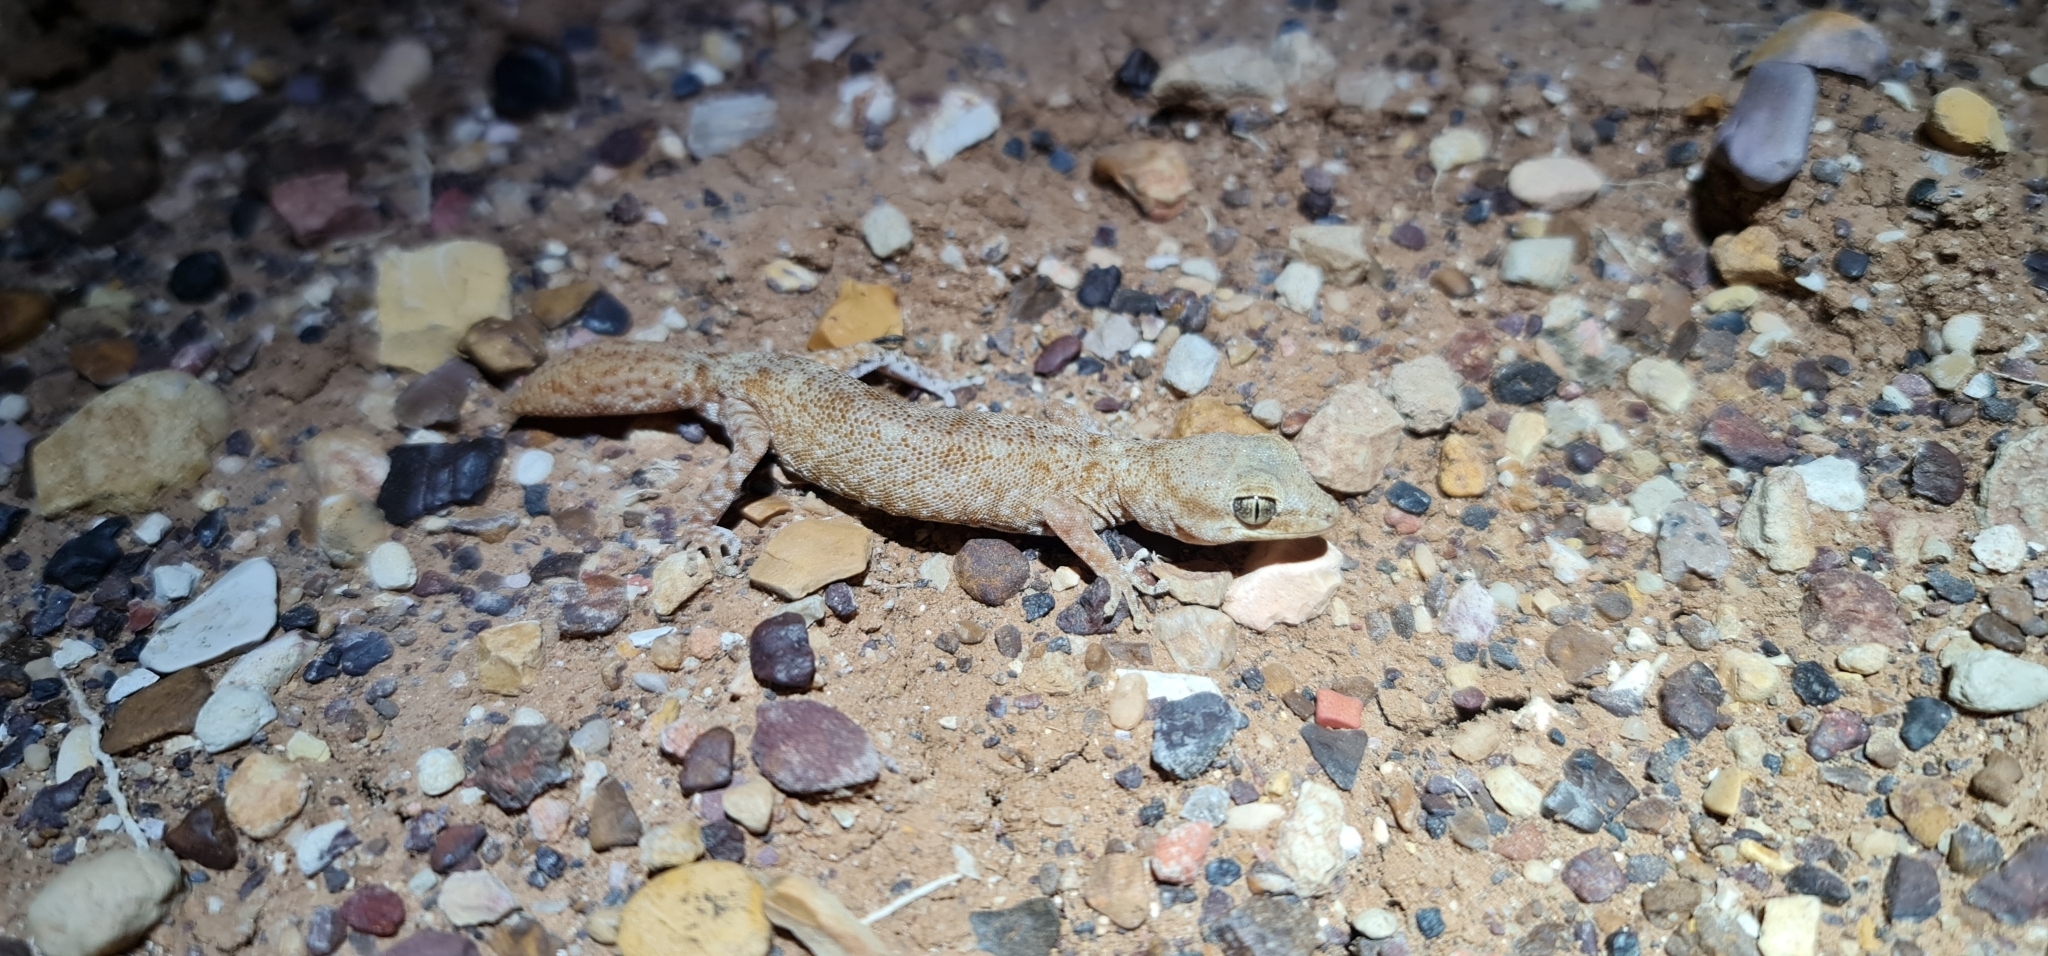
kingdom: Animalia
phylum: Chordata
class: Squamata
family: Diplodactylidae
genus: Diplodactylus
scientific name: Diplodactylus tessellatus
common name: Tesselated gecko
